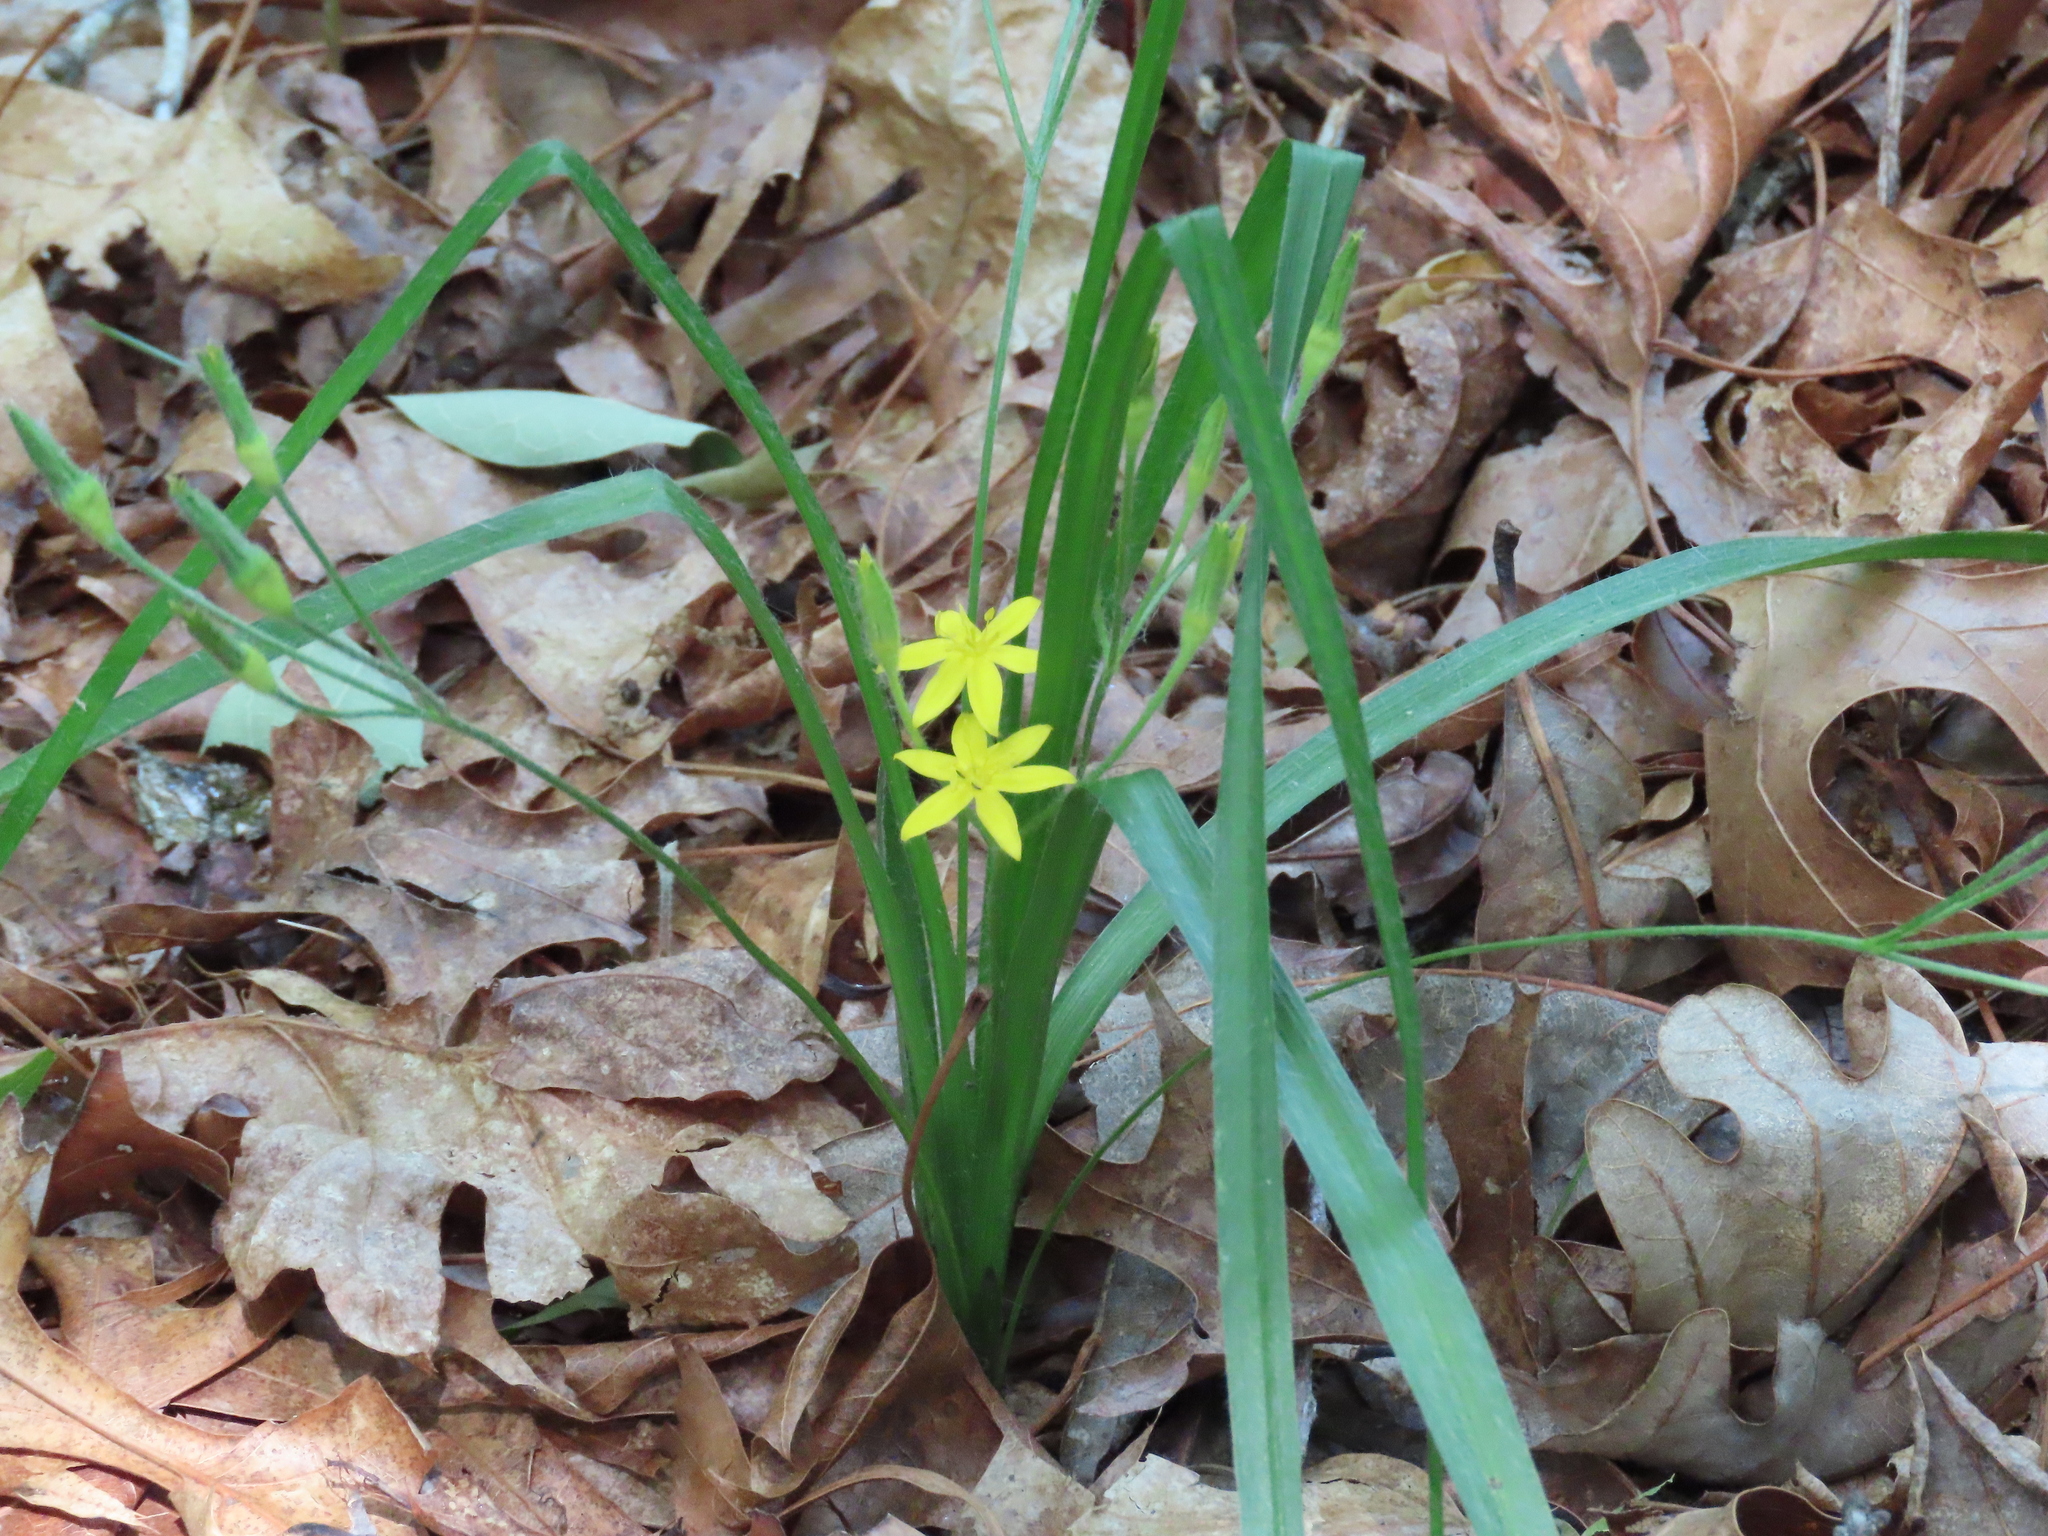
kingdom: Plantae
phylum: Tracheophyta
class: Liliopsida
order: Asparagales
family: Hypoxidaceae
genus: Hypoxis
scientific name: Hypoxis hirsuta
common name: Common goldstar
